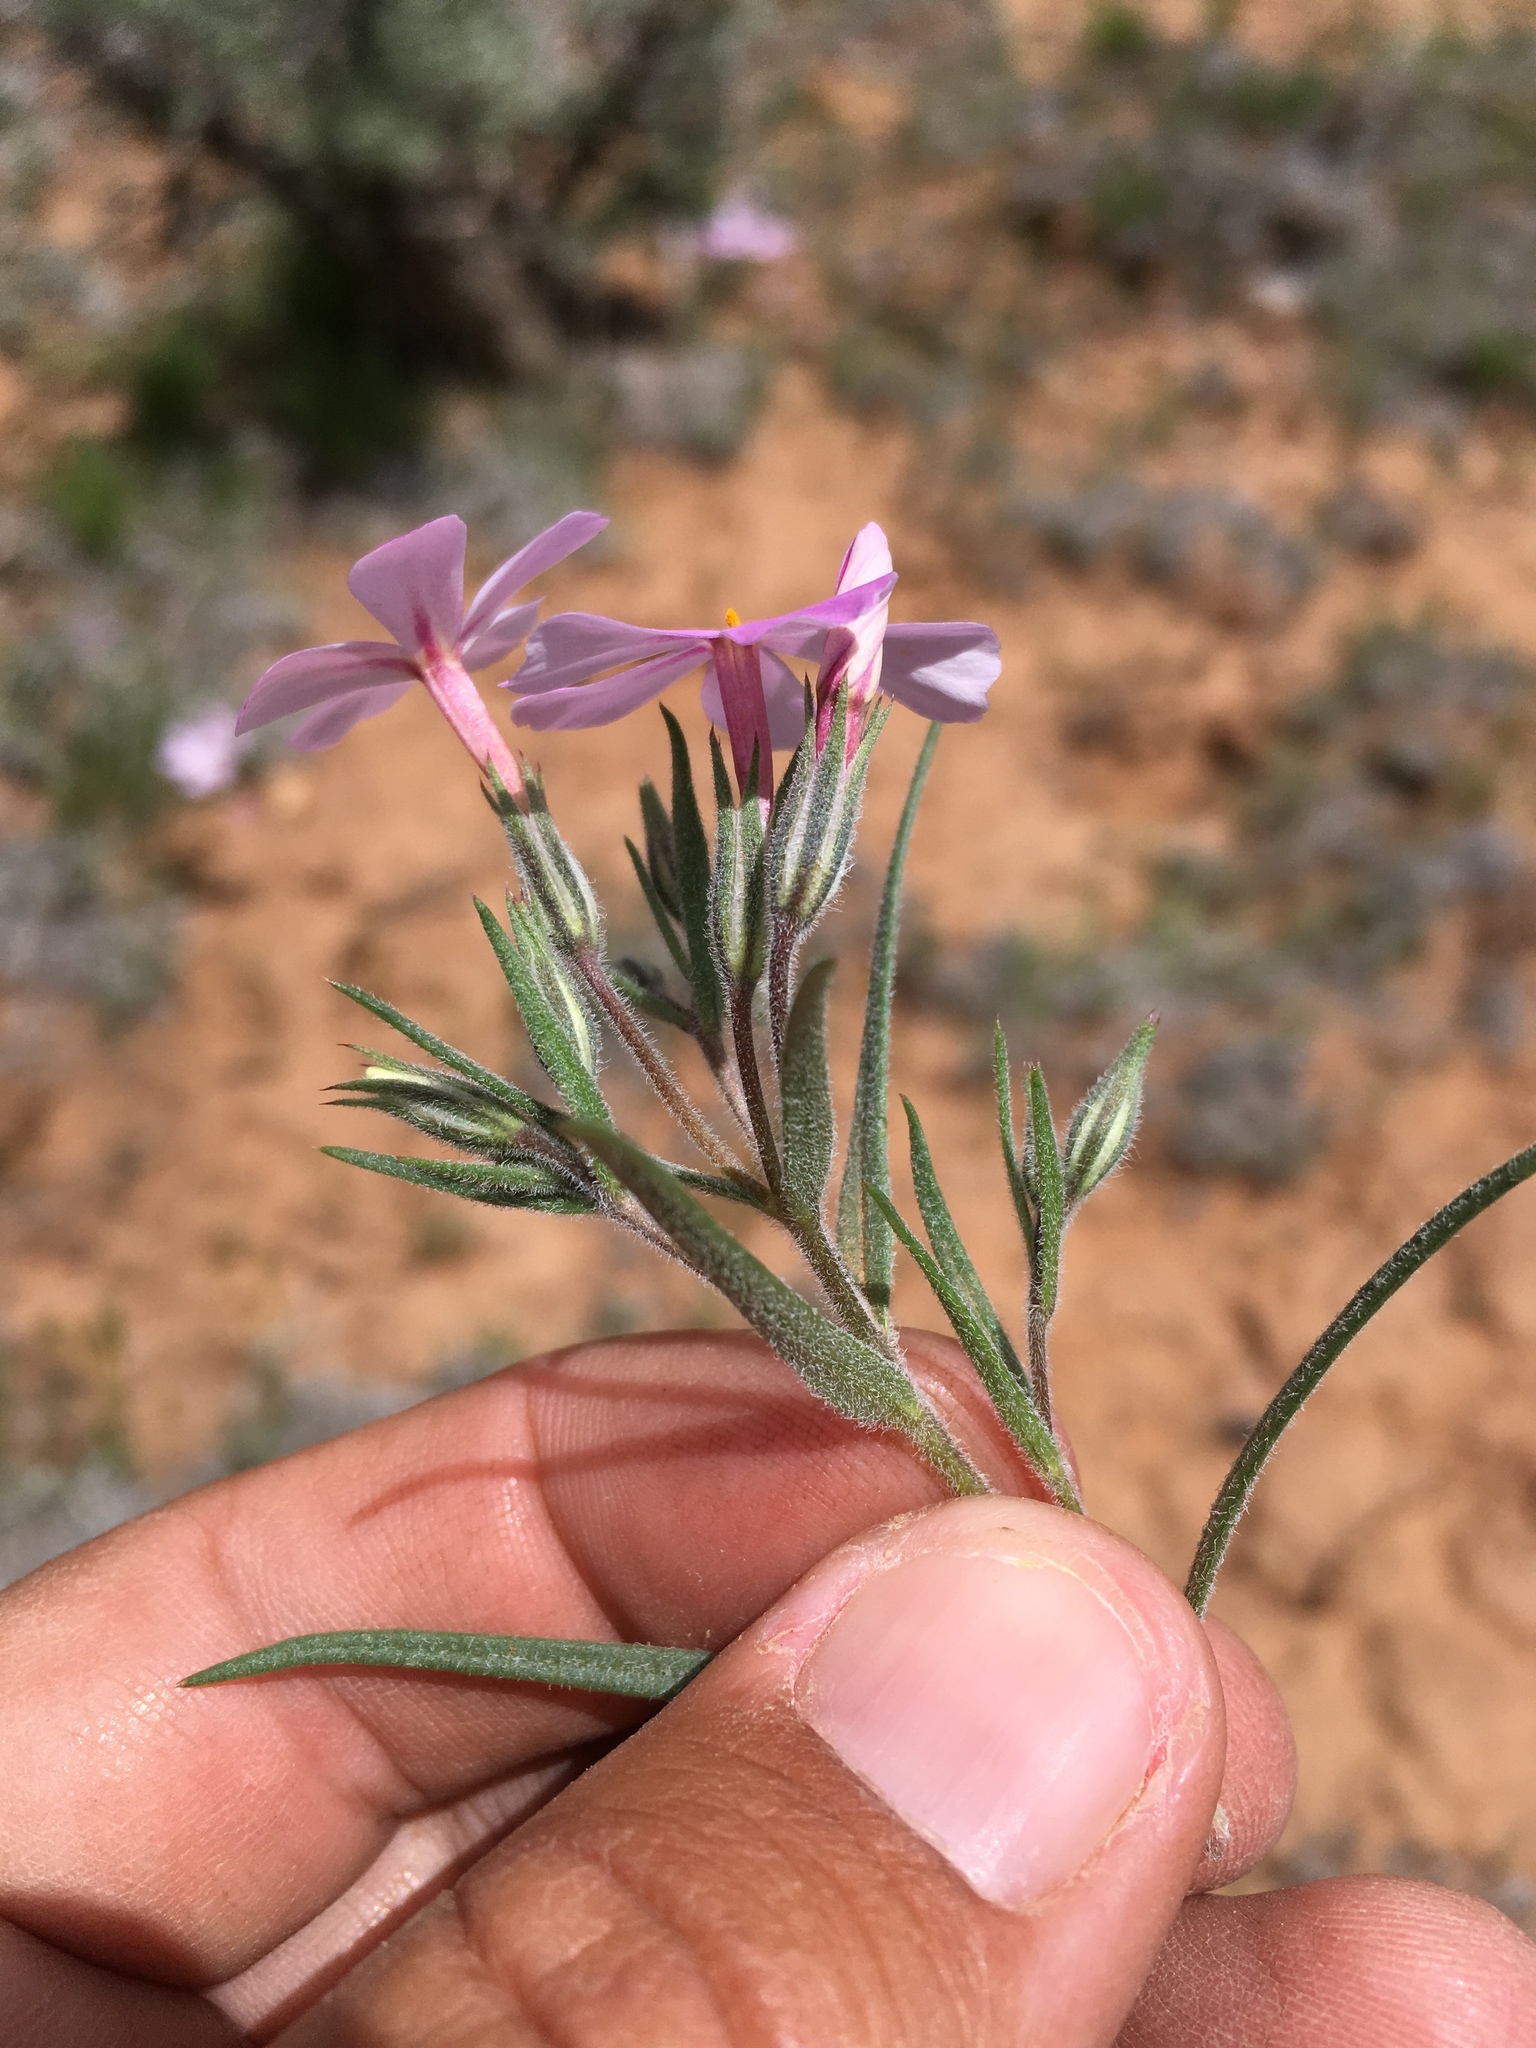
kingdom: Plantae
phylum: Tracheophyta
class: Magnoliopsida
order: Ericales
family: Polemoniaceae
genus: Phlox
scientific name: Phlox longifolia
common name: Longleaf phlox
